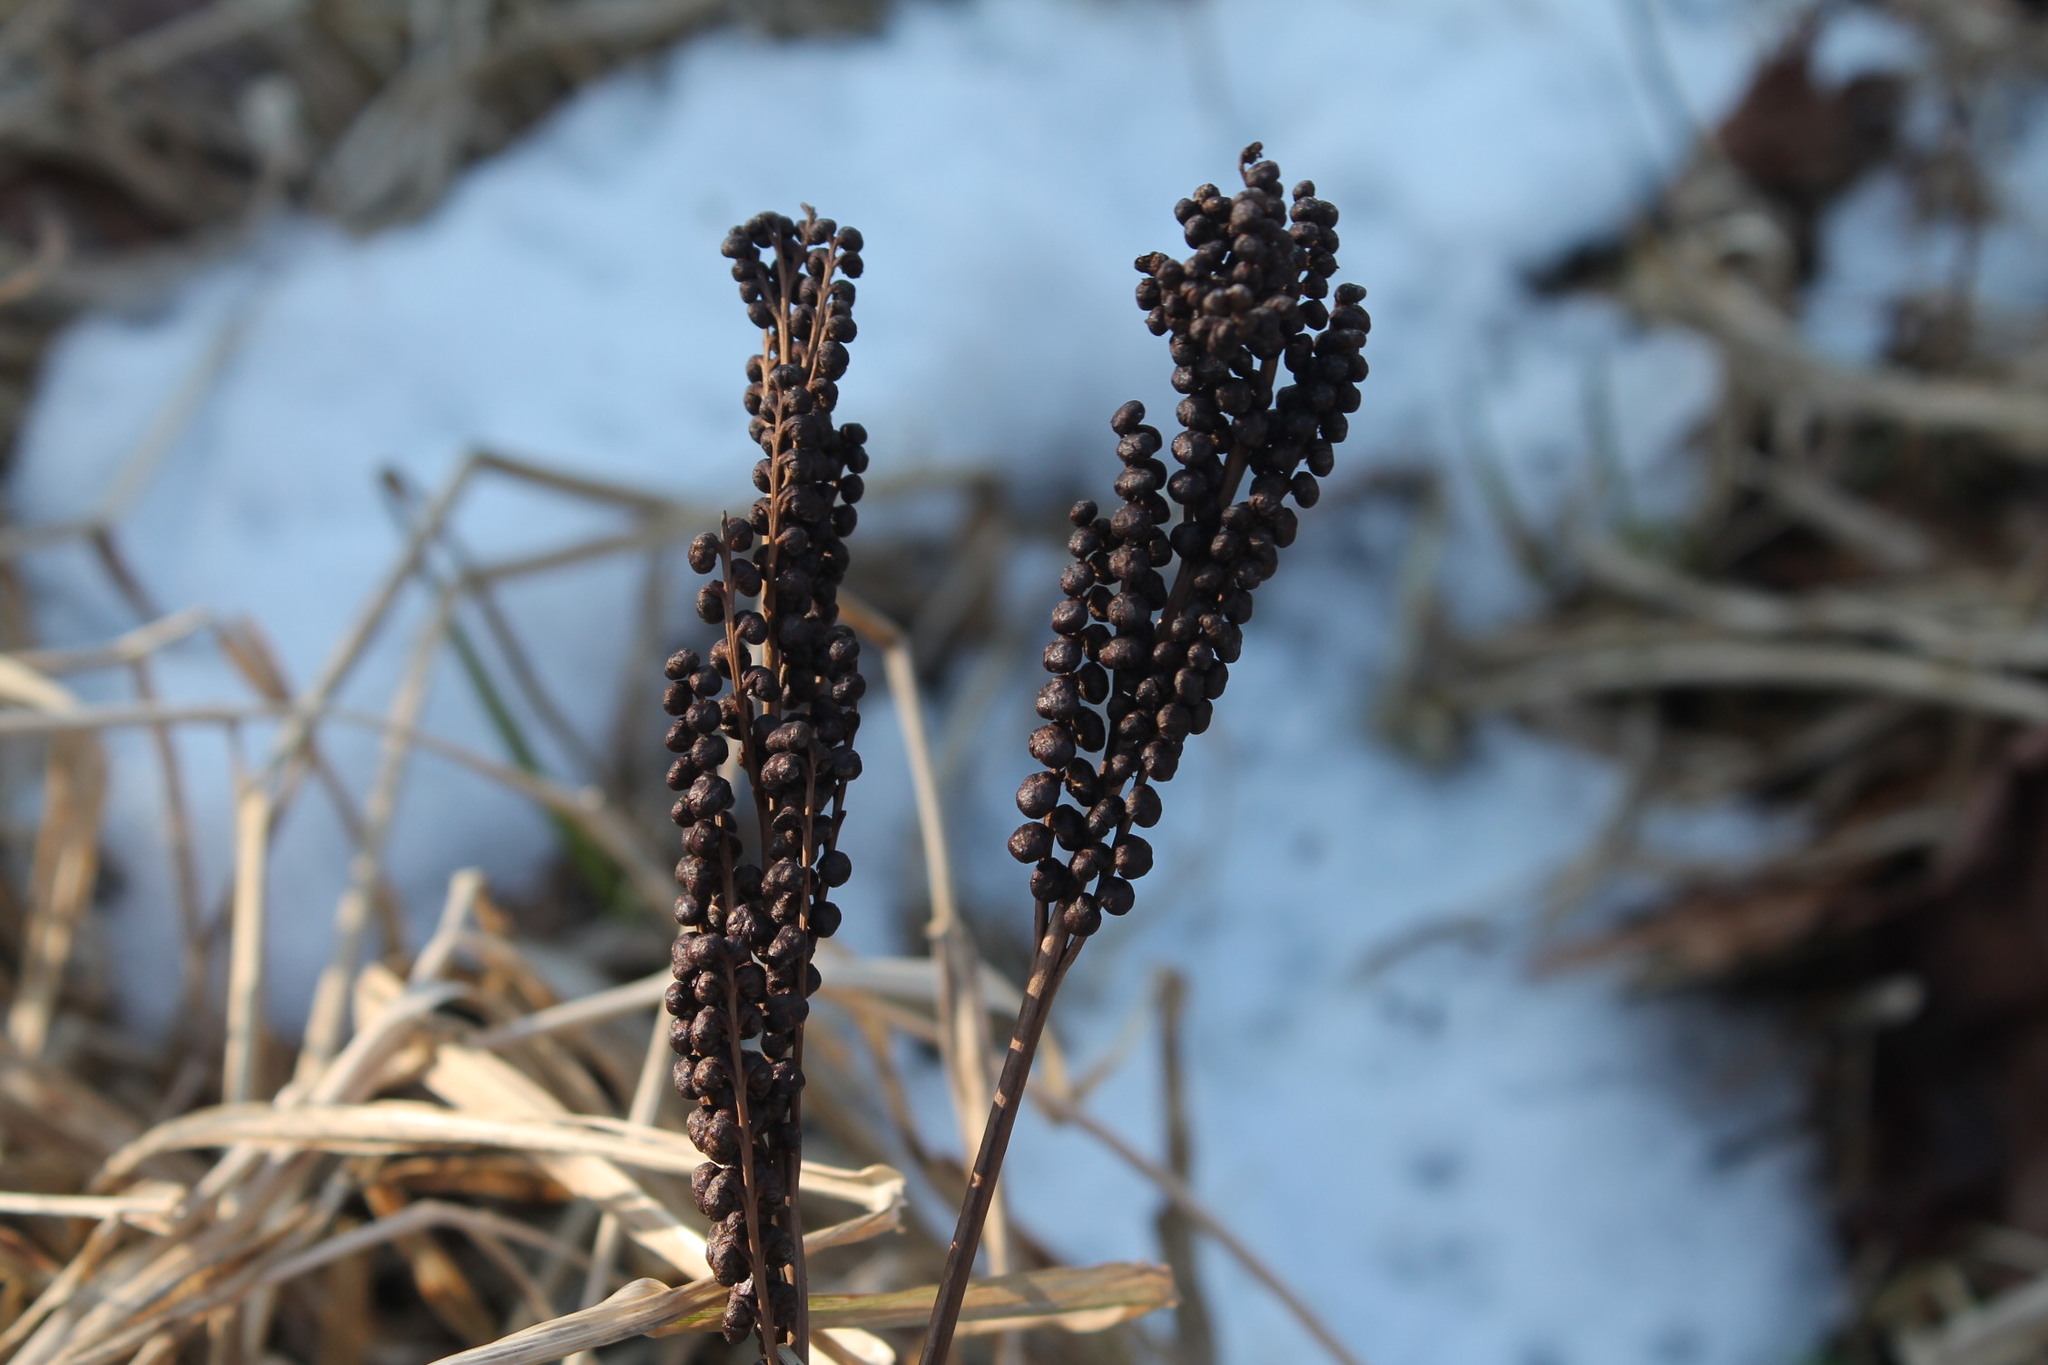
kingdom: Plantae
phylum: Tracheophyta
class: Polypodiopsida
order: Polypodiales
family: Onocleaceae
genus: Onoclea
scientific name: Onoclea sensibilis
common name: Sensitive fern
